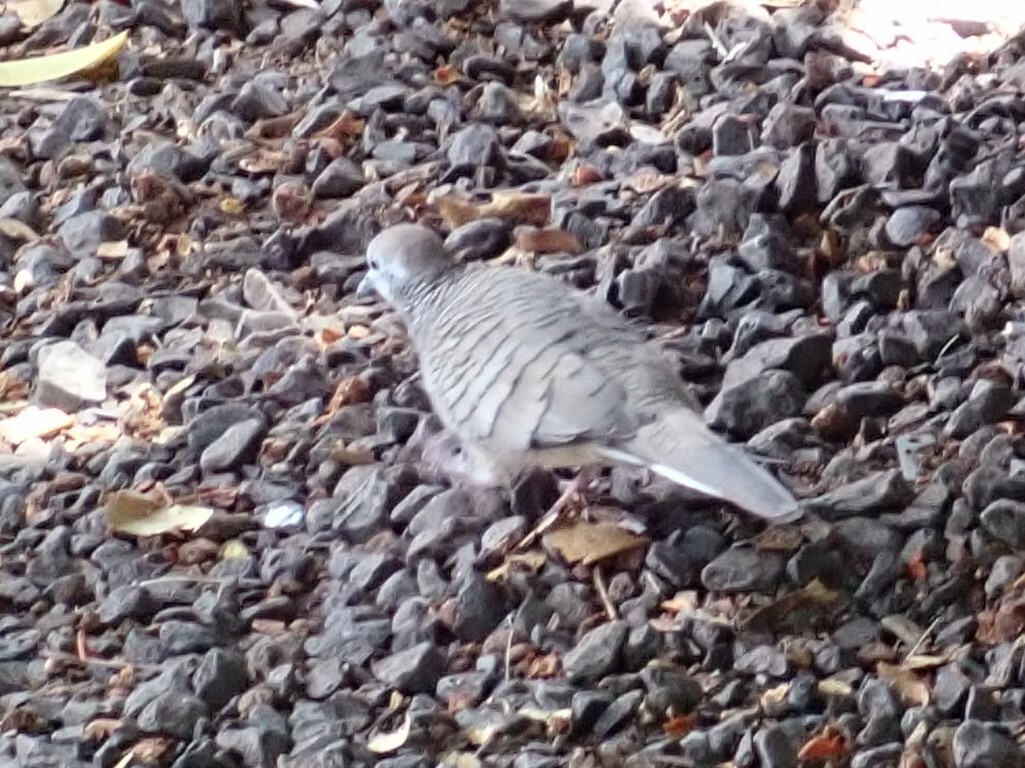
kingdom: Animalia
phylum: Chordata
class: Aves
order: Columbiformes
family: Columbidae
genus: Geopelia
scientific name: Geopelia striata
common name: Zebra dove
